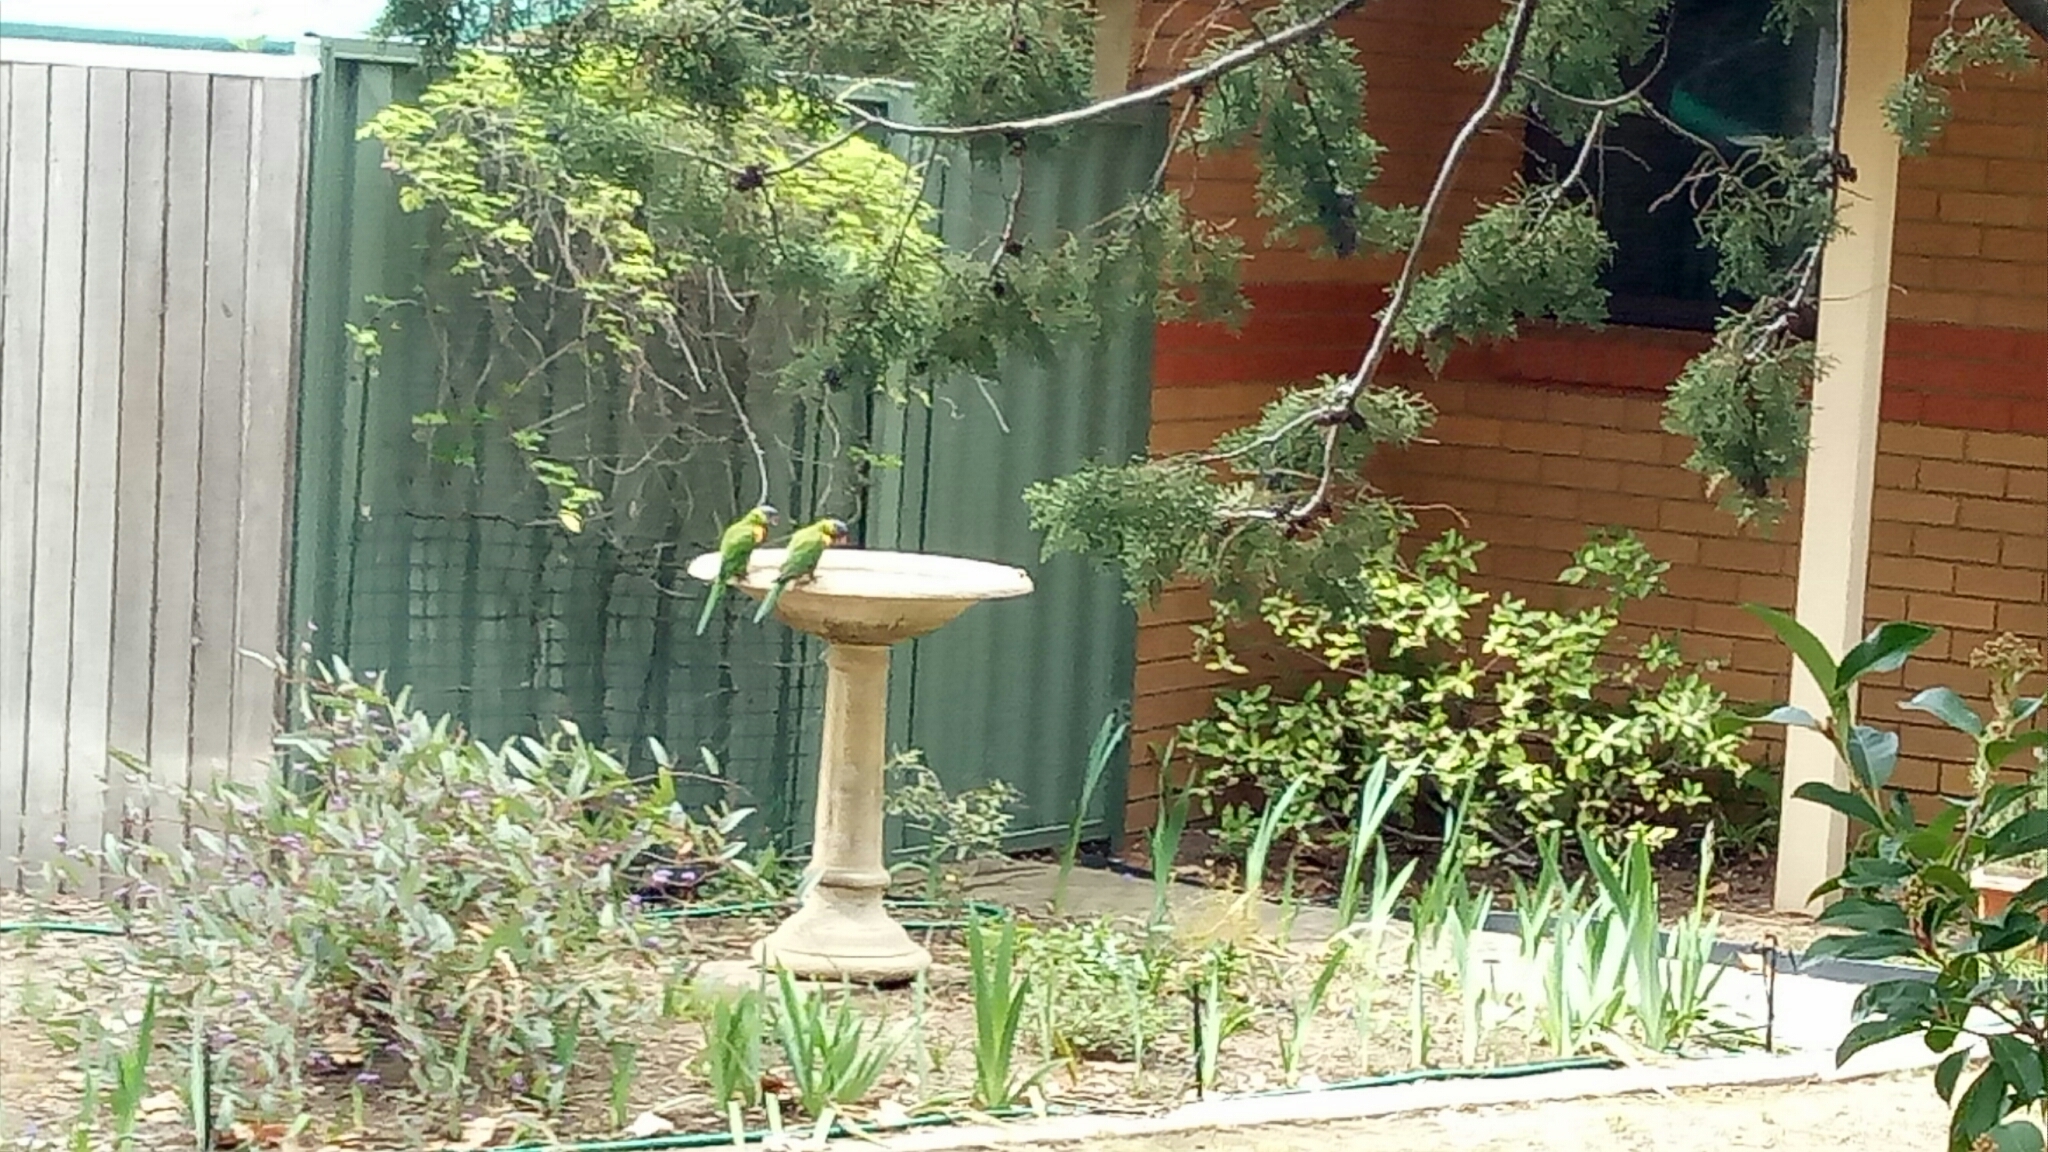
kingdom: Animalia
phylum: Chordata
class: Aves
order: Psittaciformes
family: Psittacidae
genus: Trichoglossus
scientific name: Trichoglossus haematodus
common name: Coconut lorikeet
